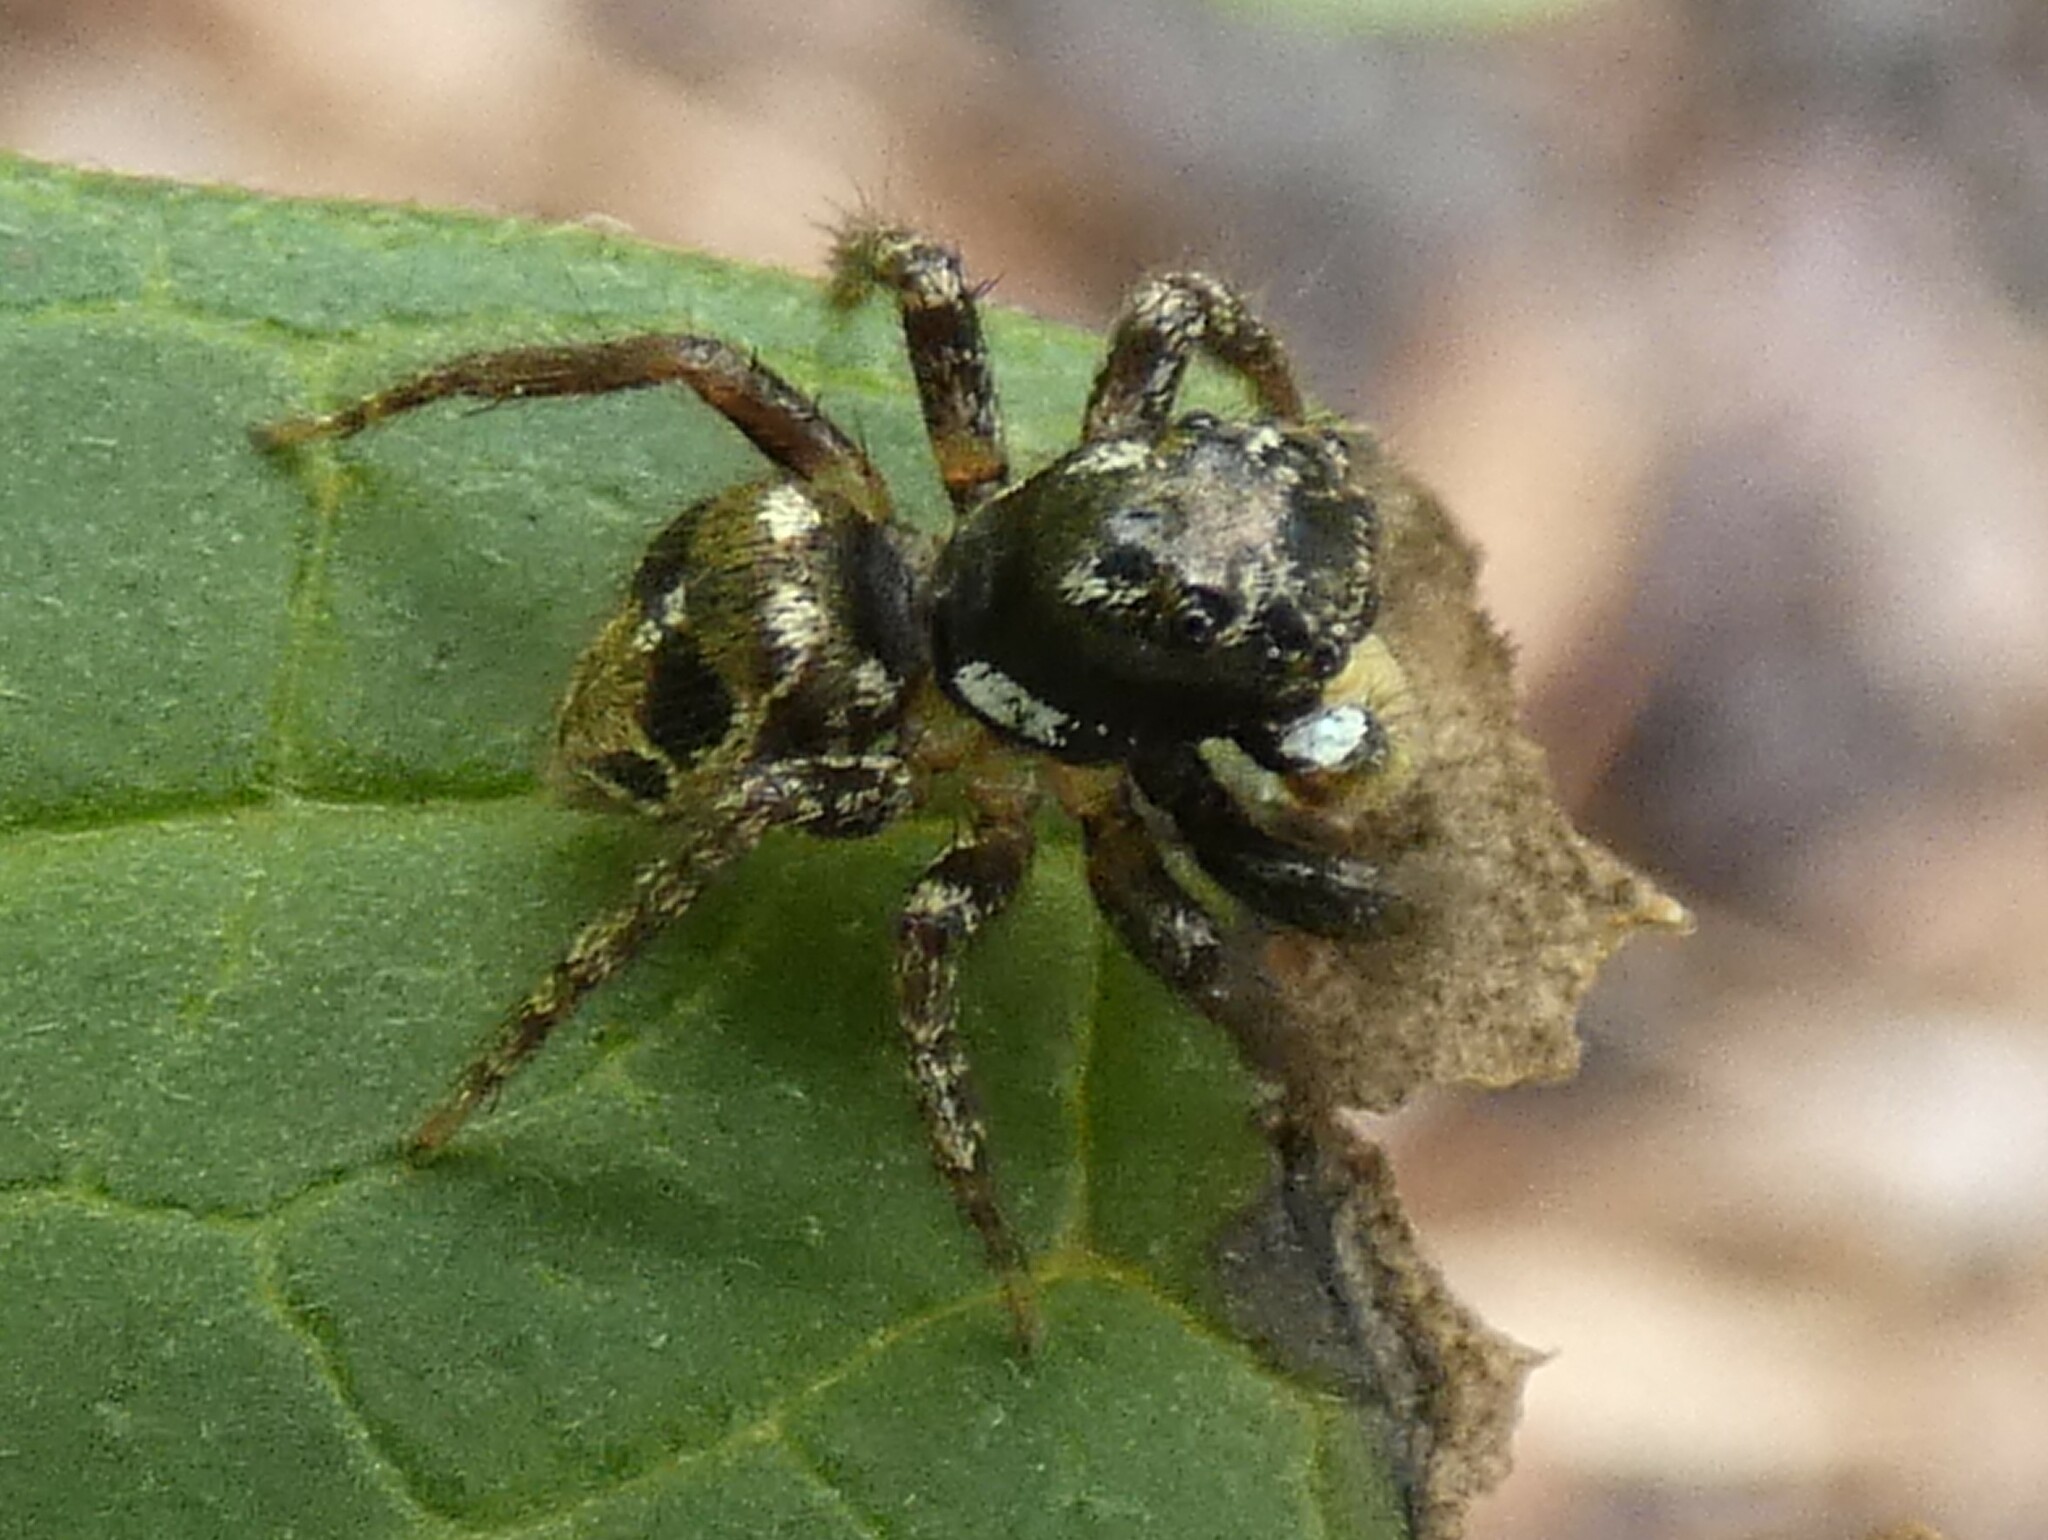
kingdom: Animalia
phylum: Arthropoda
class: Arachnida
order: Araneae
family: Salticidae
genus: Anasaitis
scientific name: Anasaitis canosa
